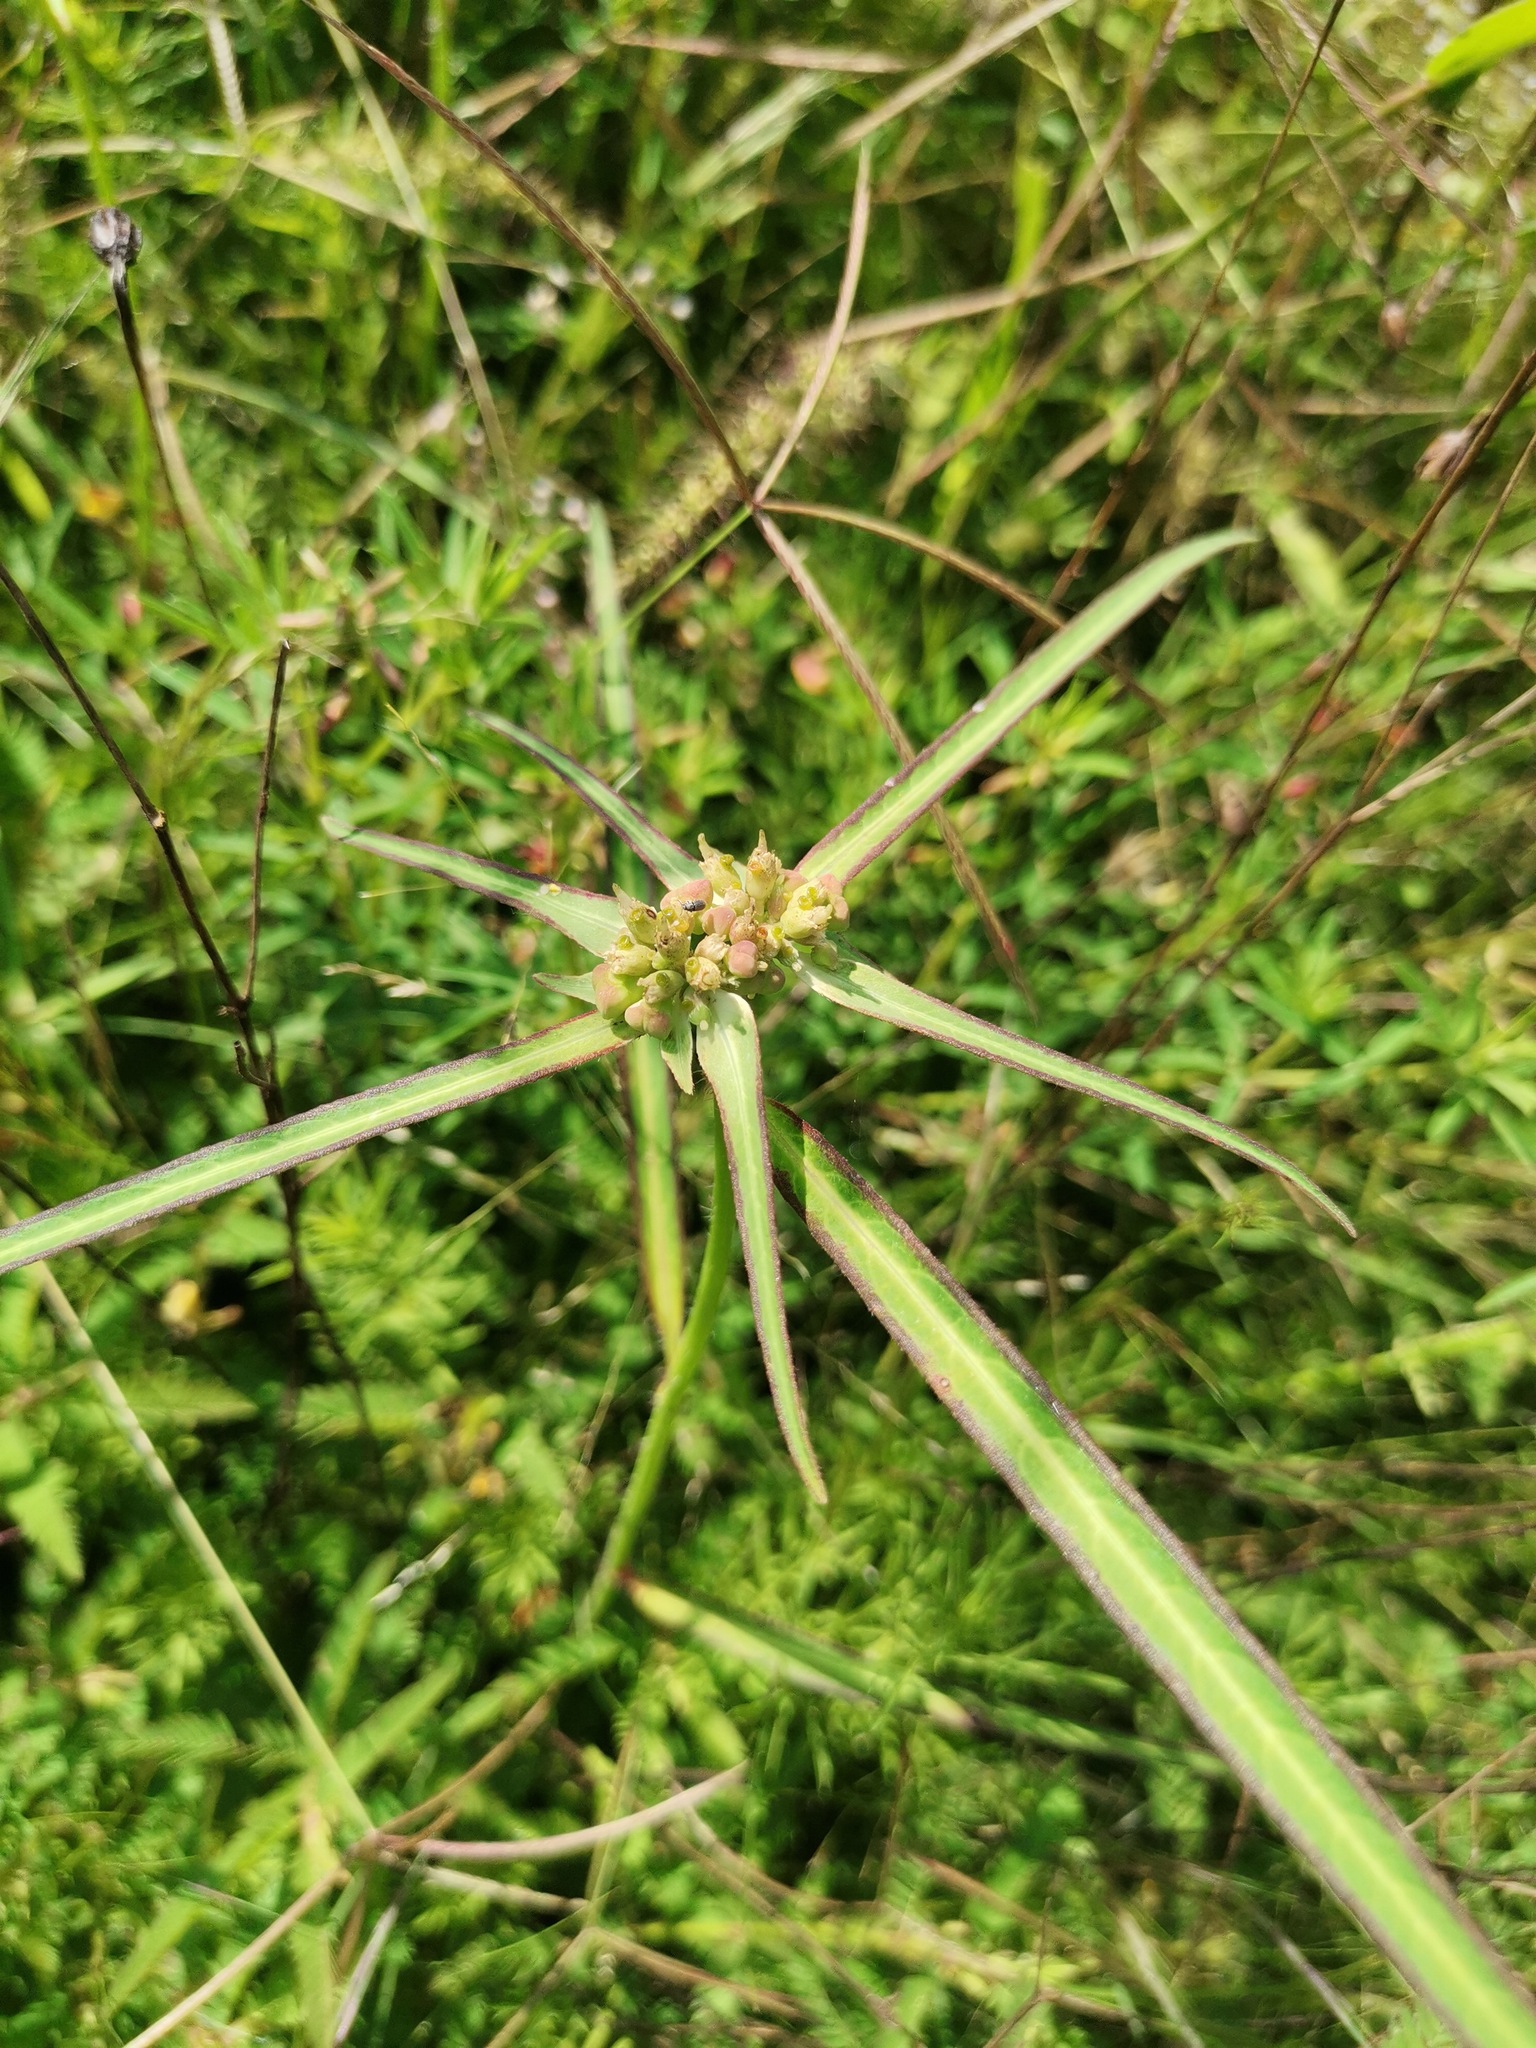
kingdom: Plantae
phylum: Tracheophyta
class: Magnoliopsida
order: Malpighiales
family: Euphorbiaceae
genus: Euphorbia
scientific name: Euphorbia heterophylla
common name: Mexican fireplant
